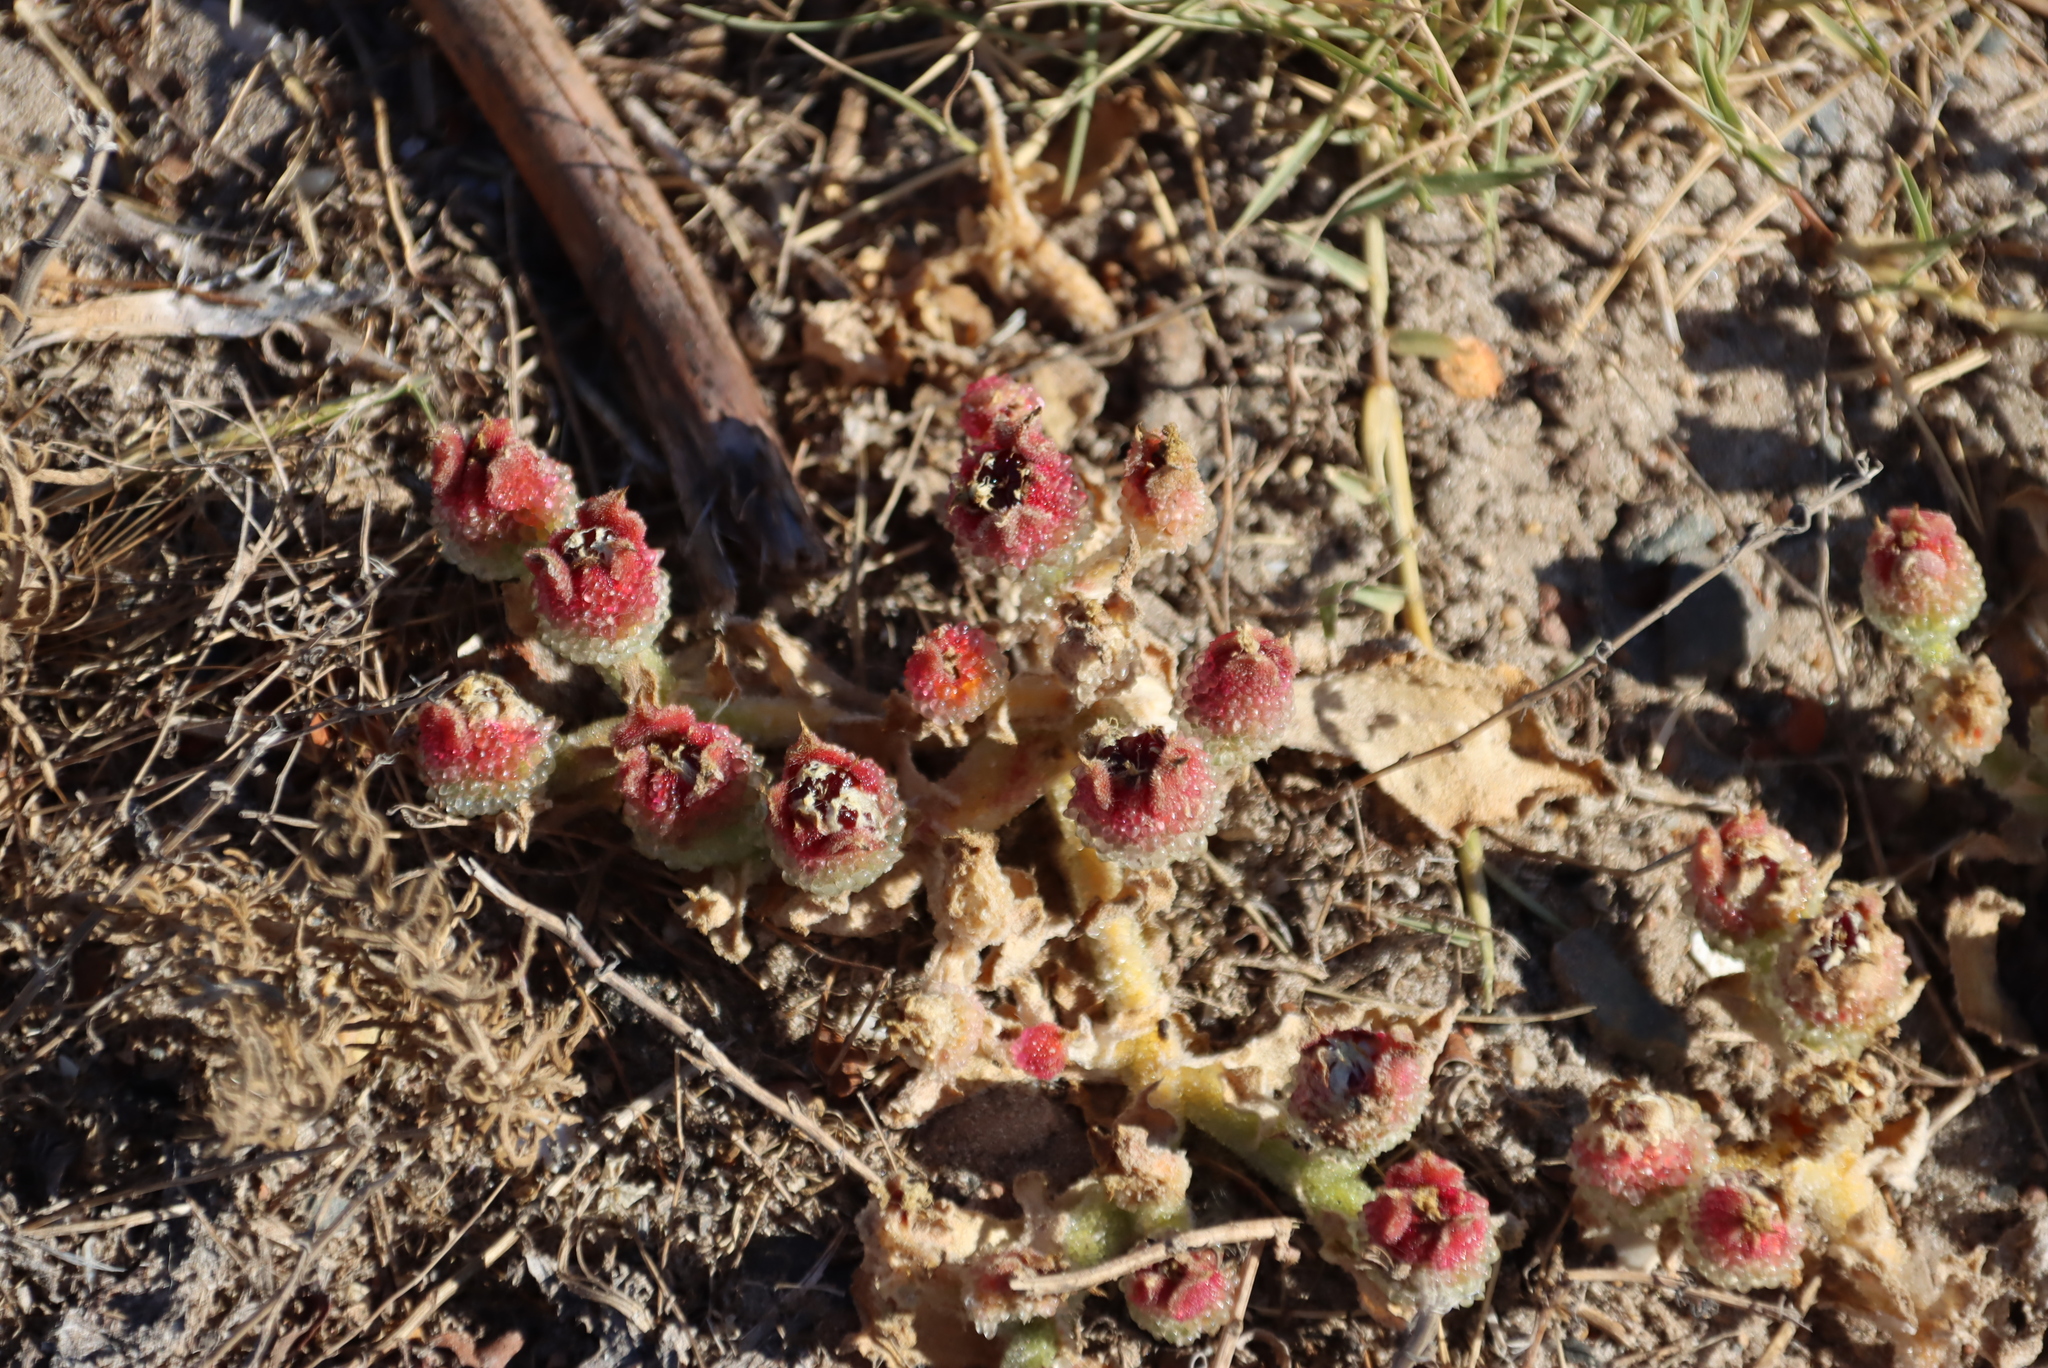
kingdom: Plantae
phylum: Tracheophyta
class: Magnoliopsida
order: Caryophyllales
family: Aizoaceae
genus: Mesembryanthemum
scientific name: Mesembryanthemum crystallinum
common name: Common iceplant
